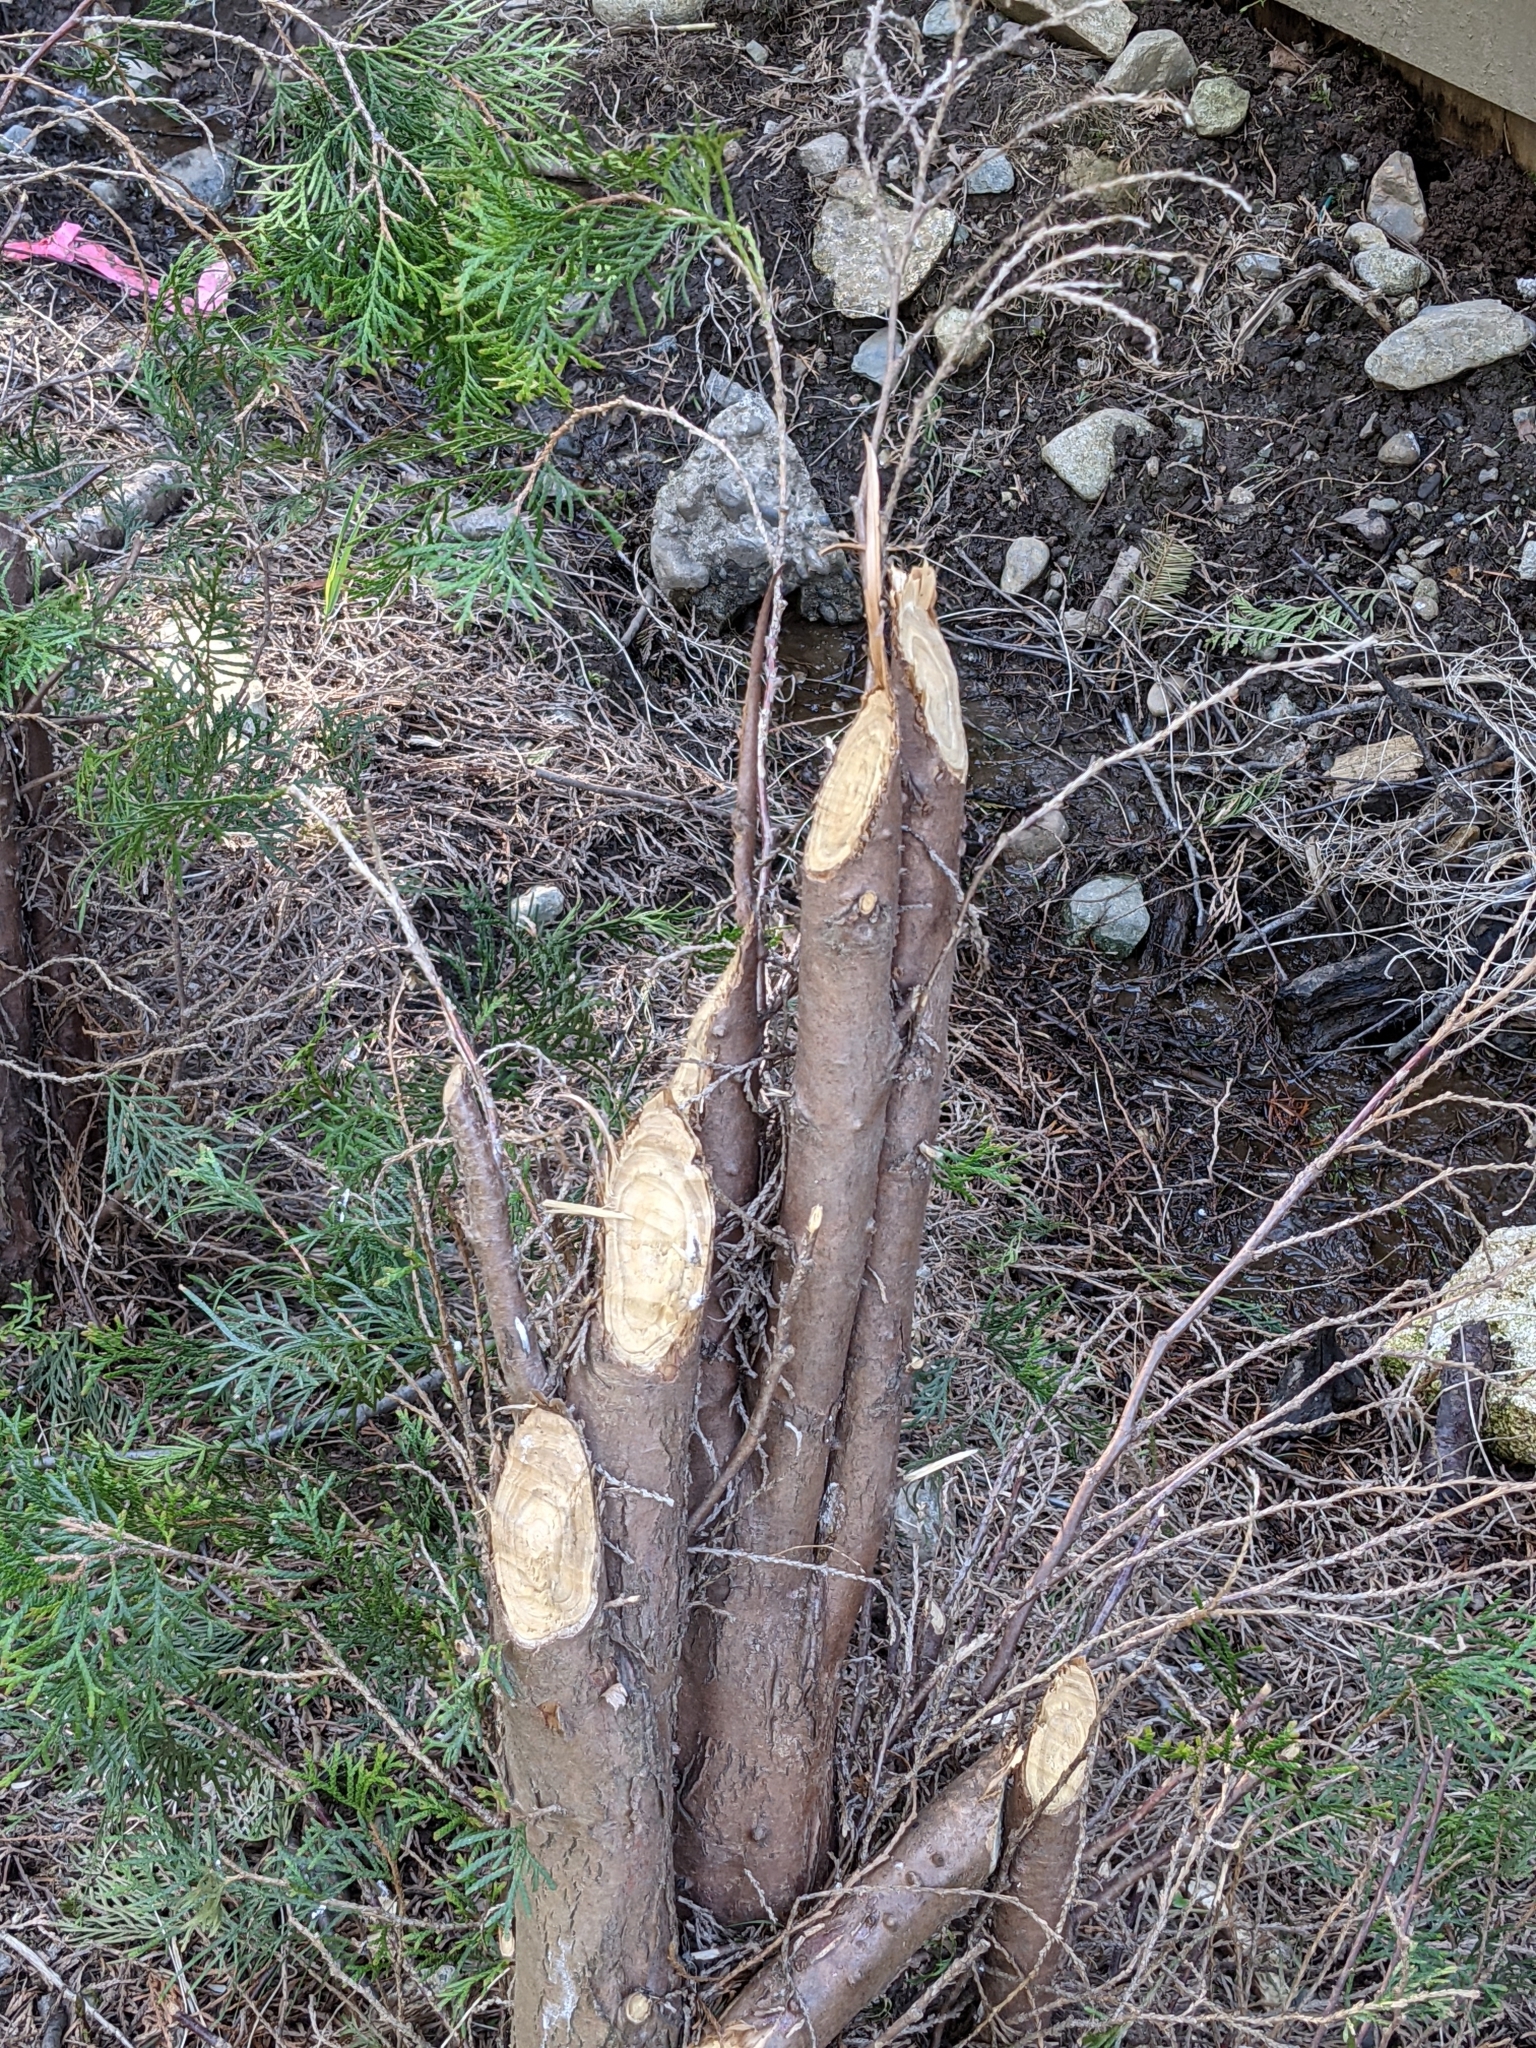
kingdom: Animalia
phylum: Chordata
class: Mammalia
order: Rodentia
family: Castoridae
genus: Castor
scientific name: Castor canadensis
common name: American beaver
